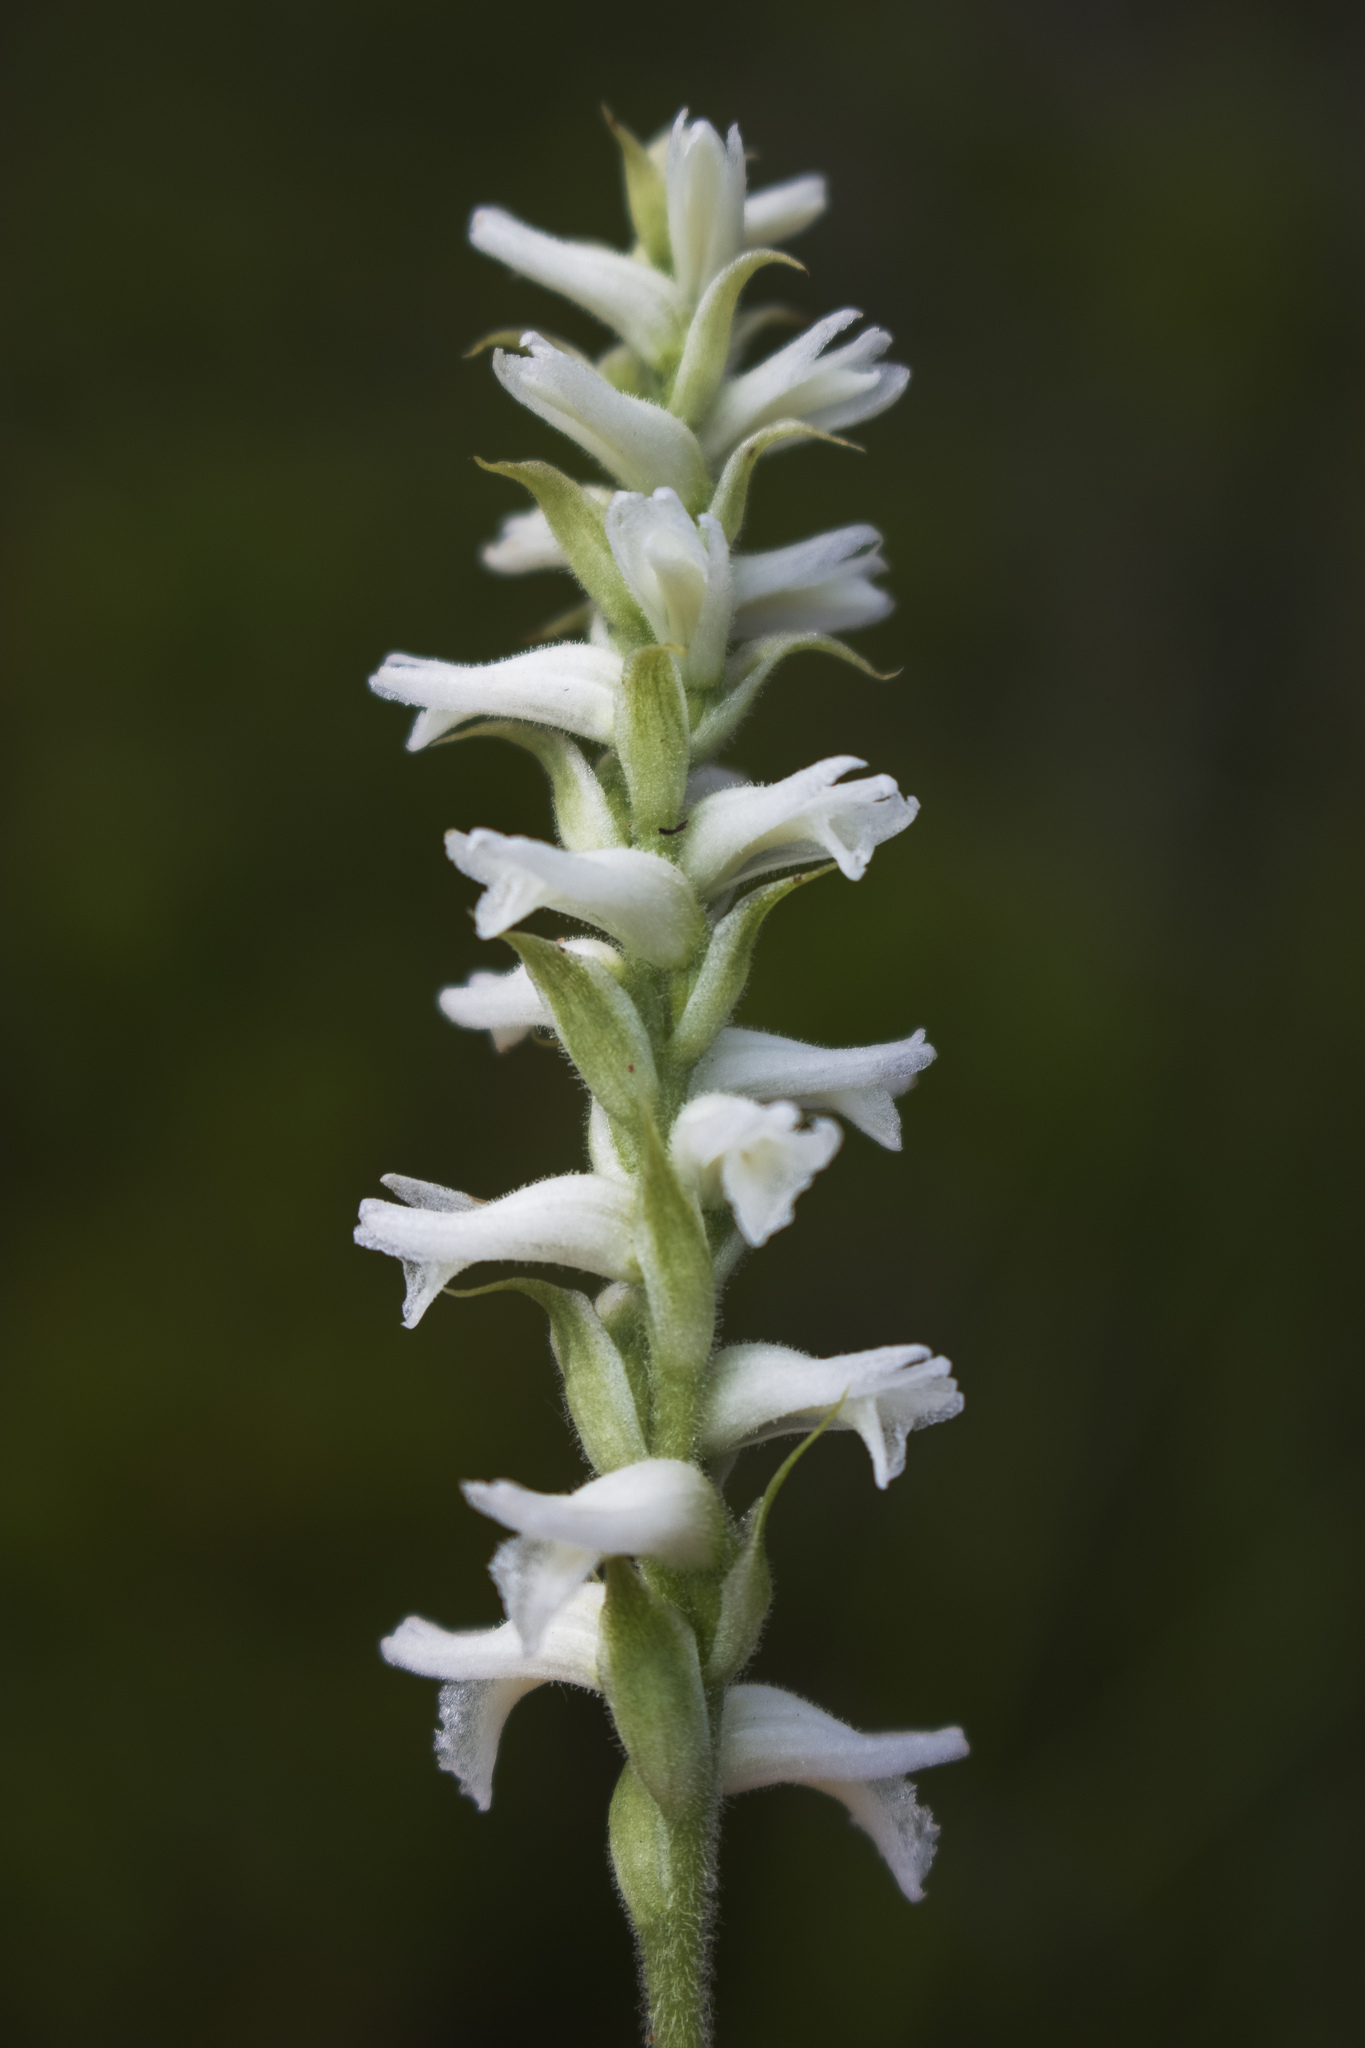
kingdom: Plantae
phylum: Tracheophyta
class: Liliopsida
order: Asparagales
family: Orchidaceae
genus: Spiranthes
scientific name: Spiranthes incurva
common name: Sphinx ladies'-tresses
